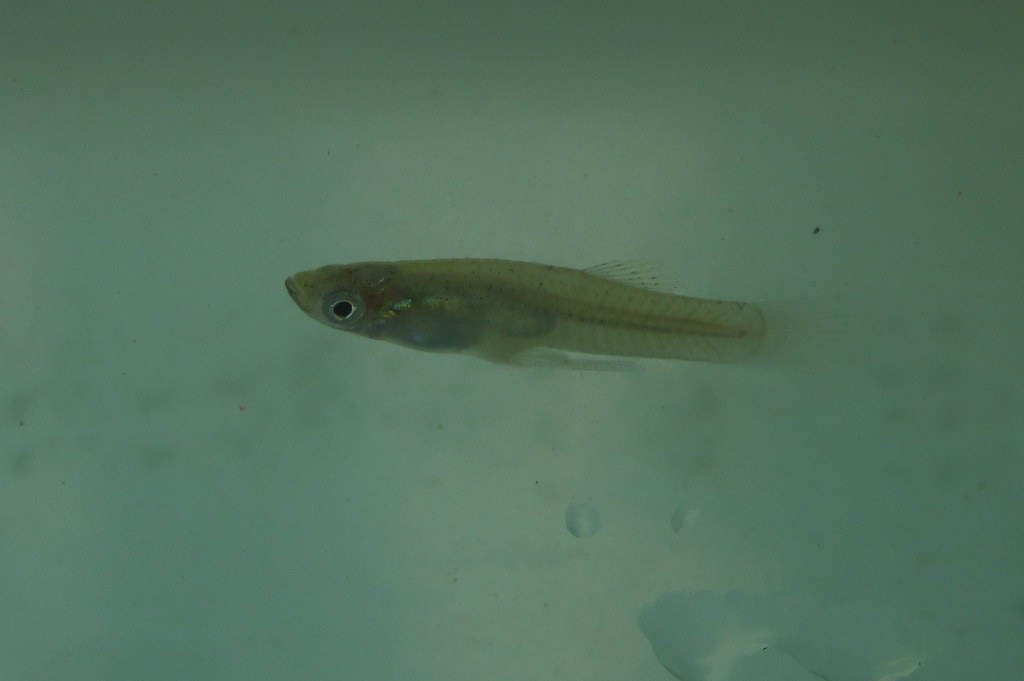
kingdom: Animalia
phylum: Chordata
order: Cyprinodontiformes
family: Poeciliidae
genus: Gambusia
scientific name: Gambusia affinis
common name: Mosquitofish
